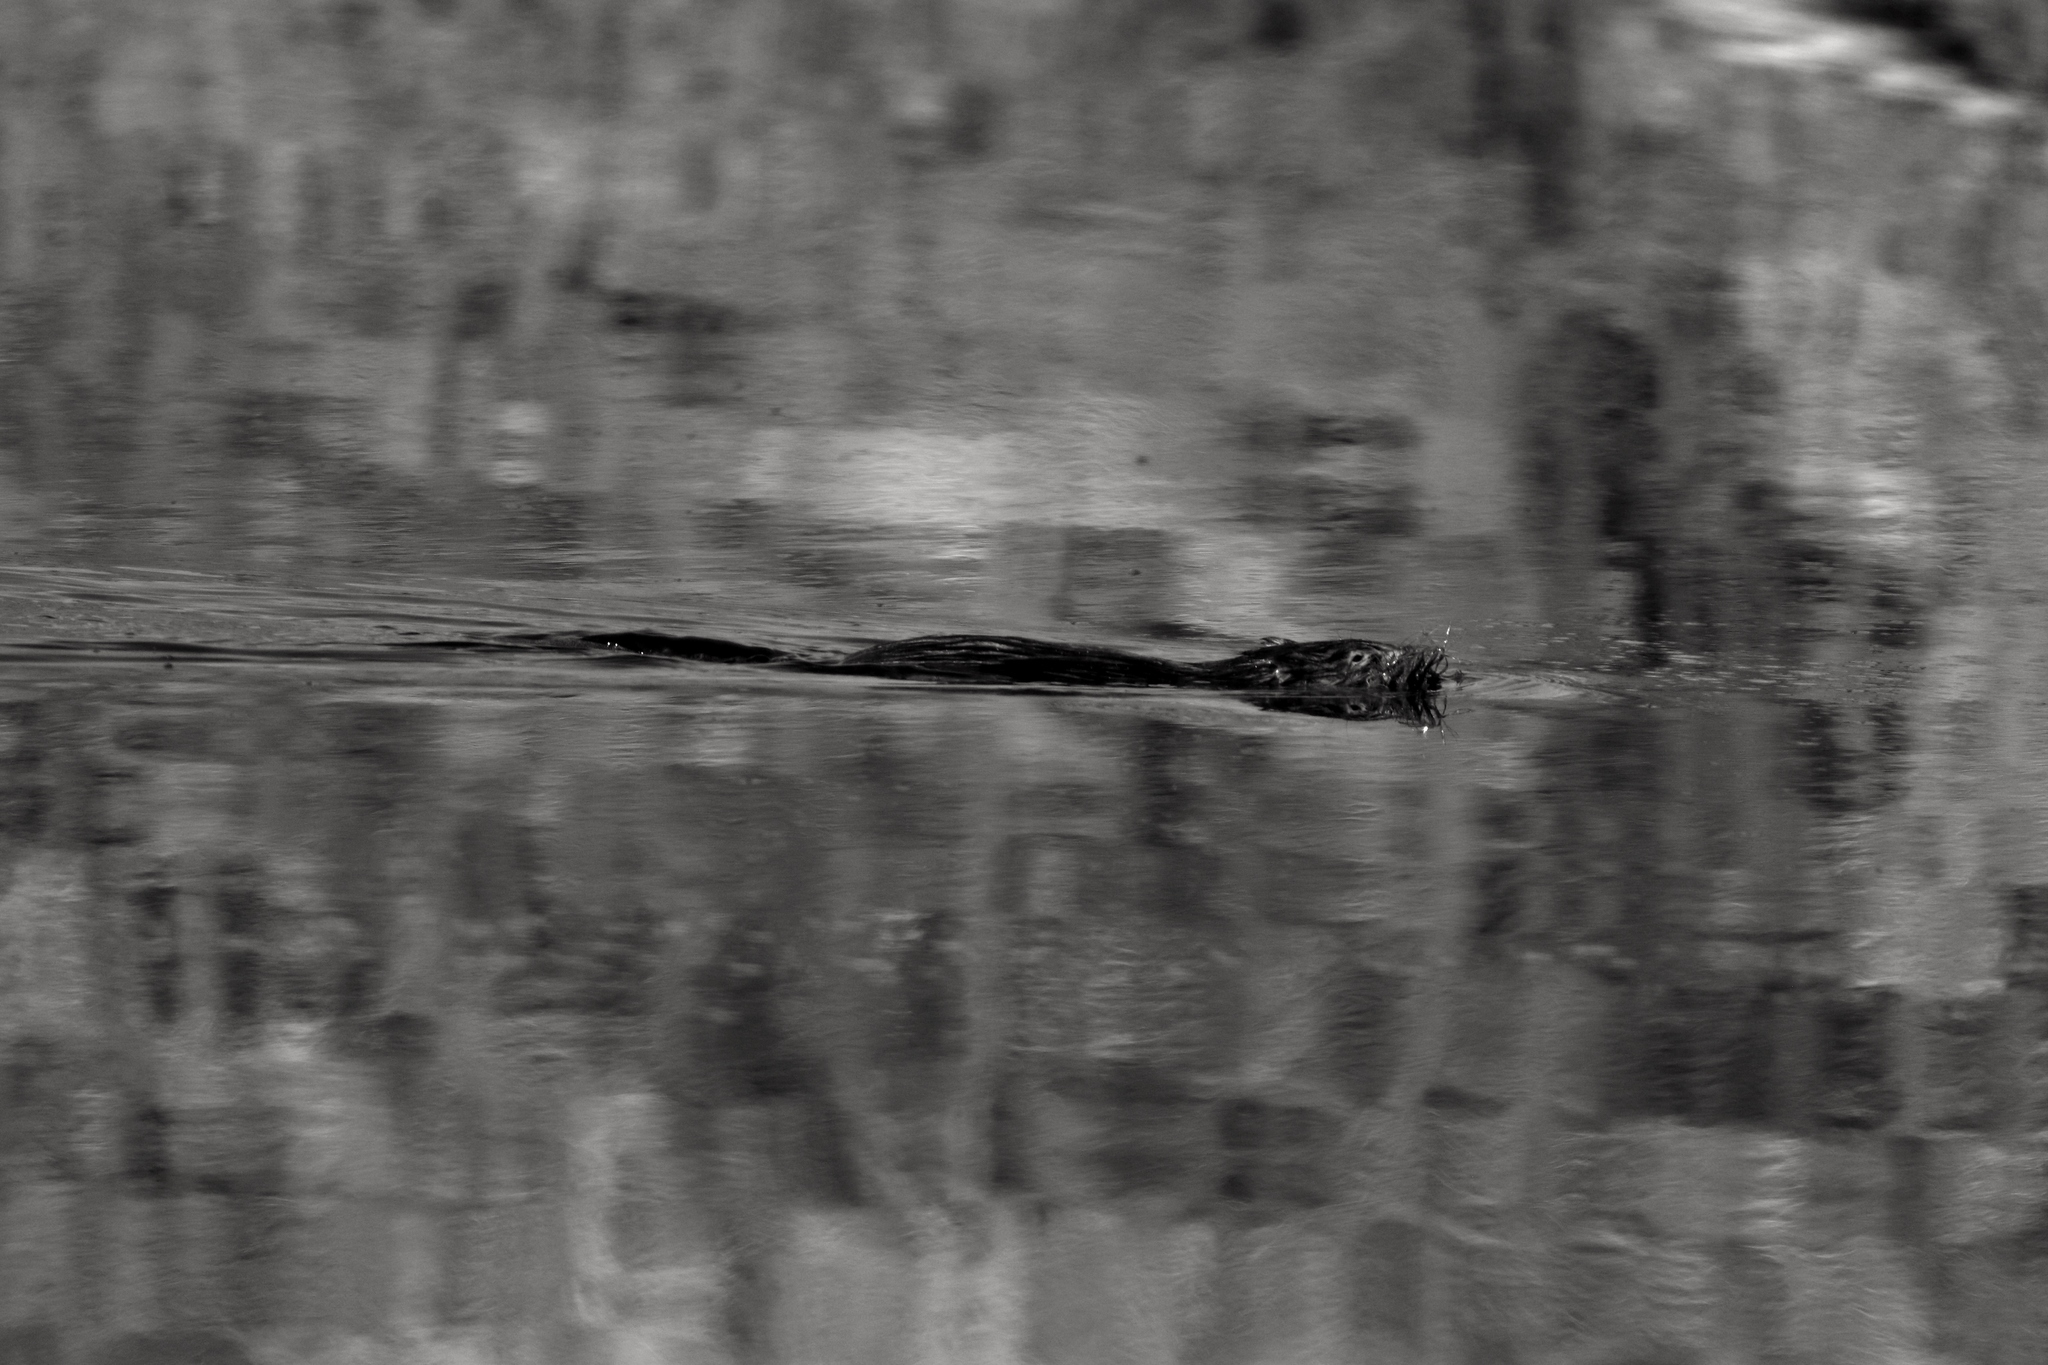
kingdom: Animalia
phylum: Chordata
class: Mammalia
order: Rodentia
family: Cricetidae
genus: Ondatra
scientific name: Ondatra zibethicus
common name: Muskrat
